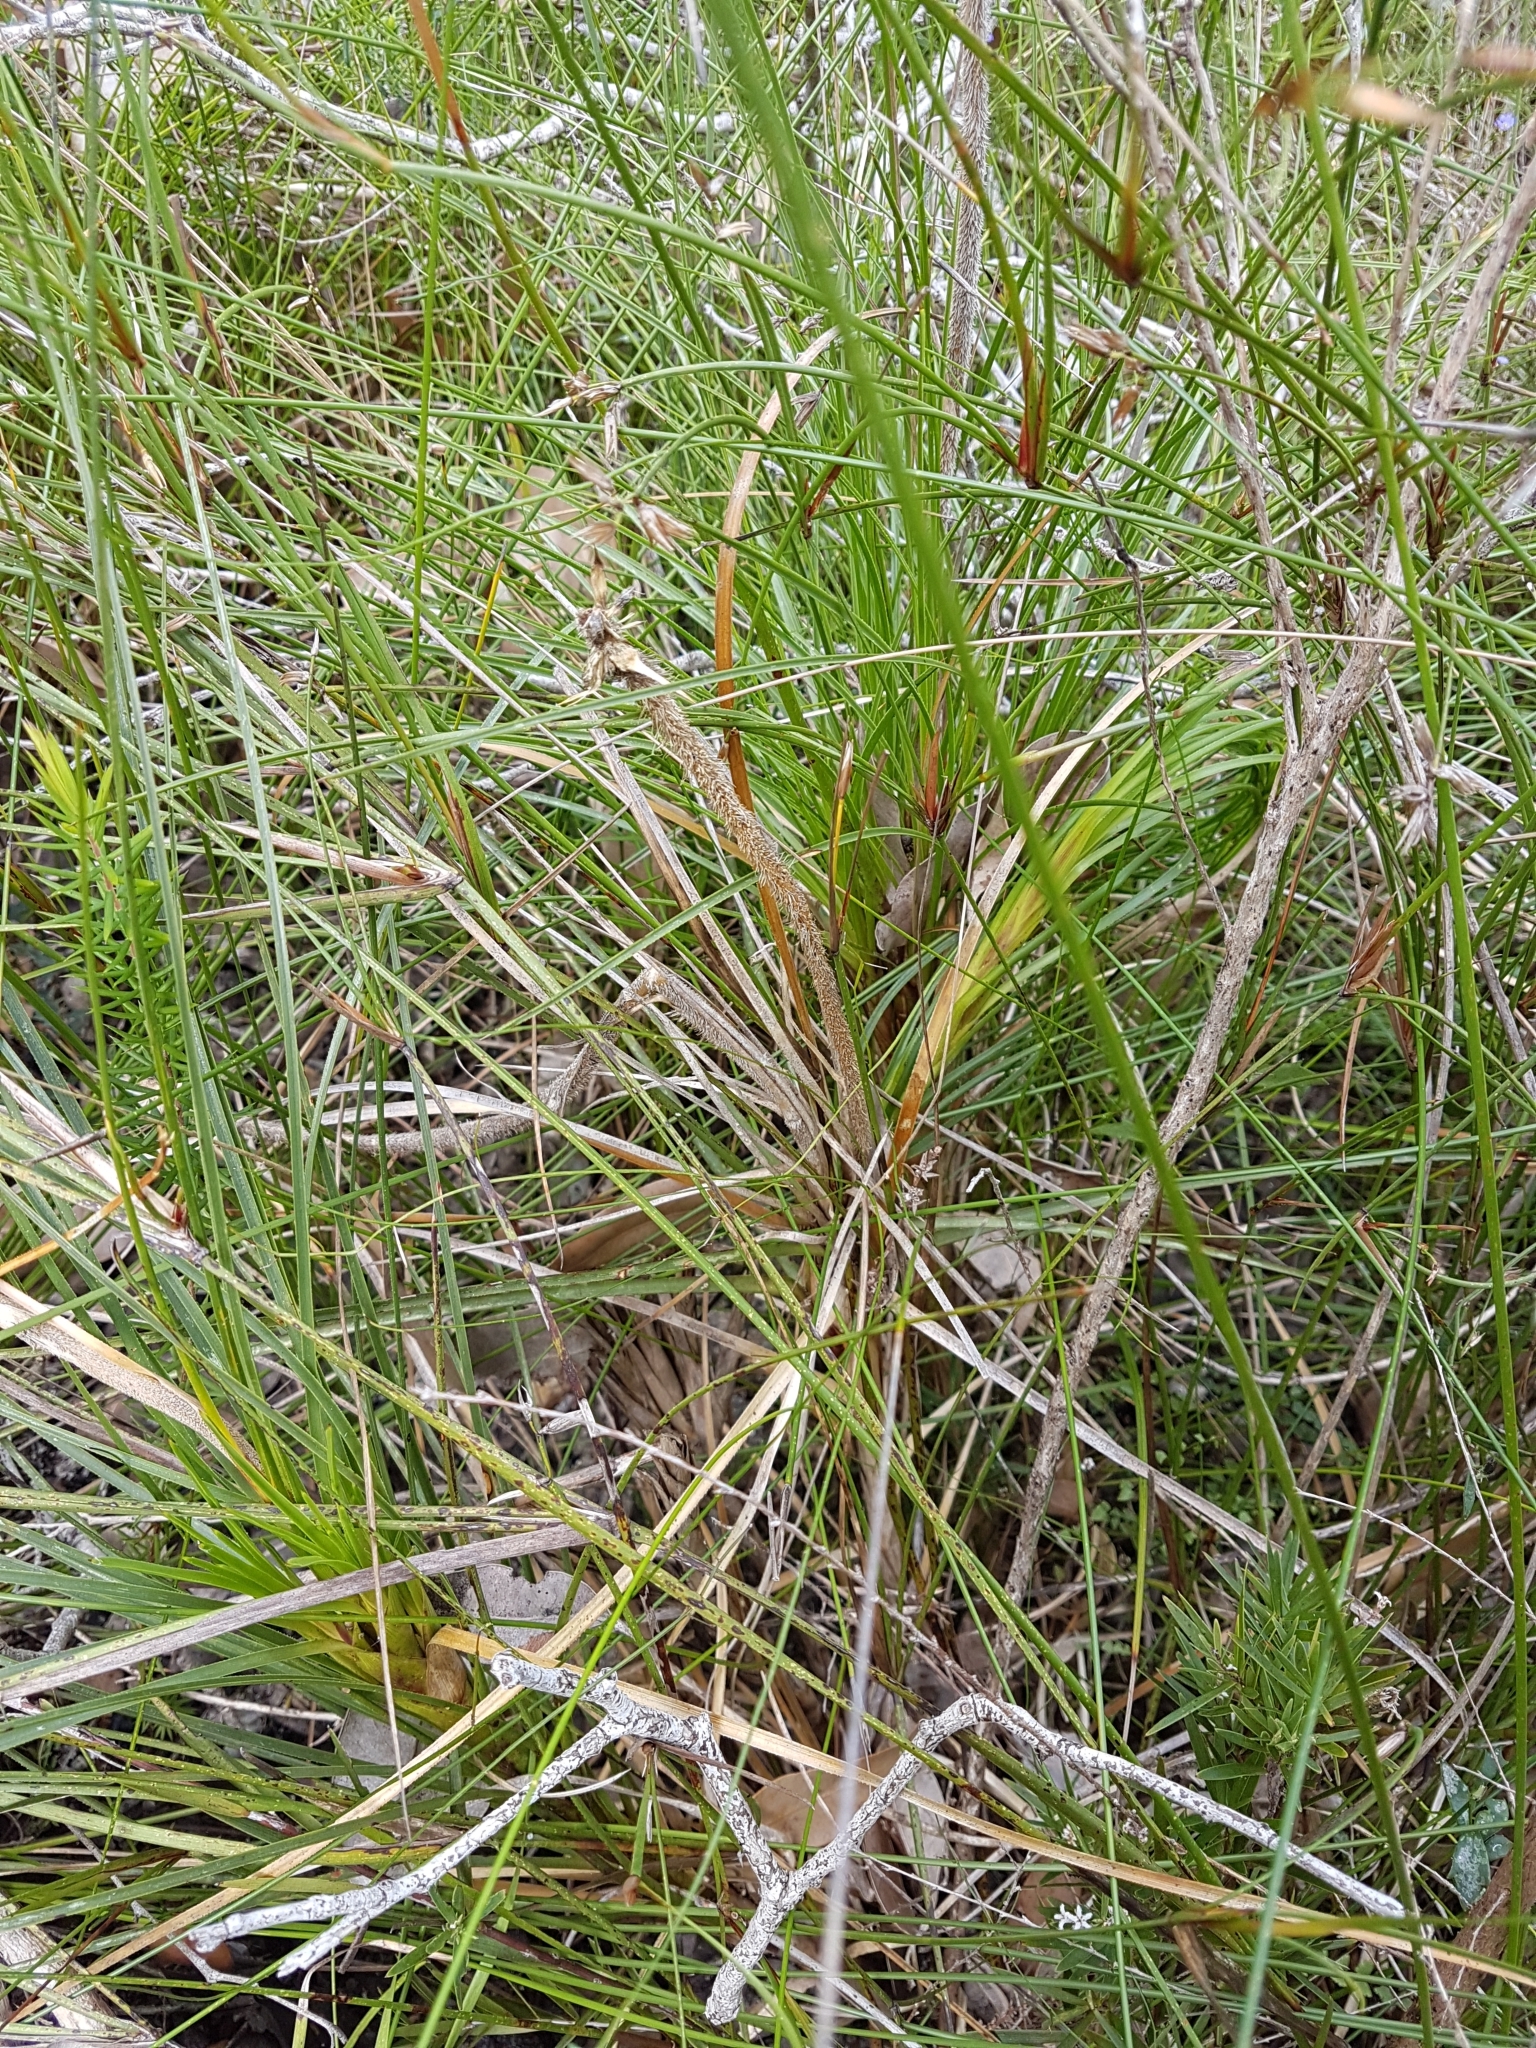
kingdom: Plantae
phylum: Tracheophyta
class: Liliopsida
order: Arecales
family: Dasypogonaceae
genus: Dasypogon
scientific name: Dasypogon bromeliifolius
